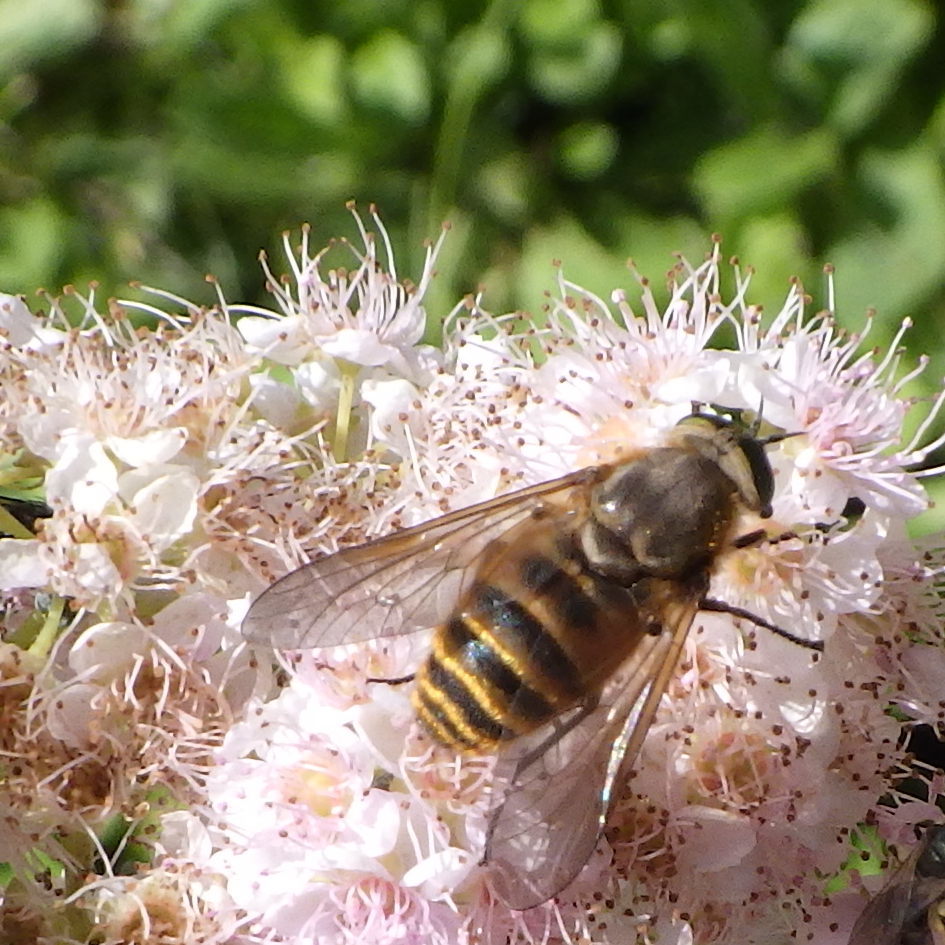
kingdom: Animalia
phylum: Arthropoda
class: Insecta
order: Diptera
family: Tabanidae
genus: Stonemyia
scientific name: Stonemyia tranquilla
